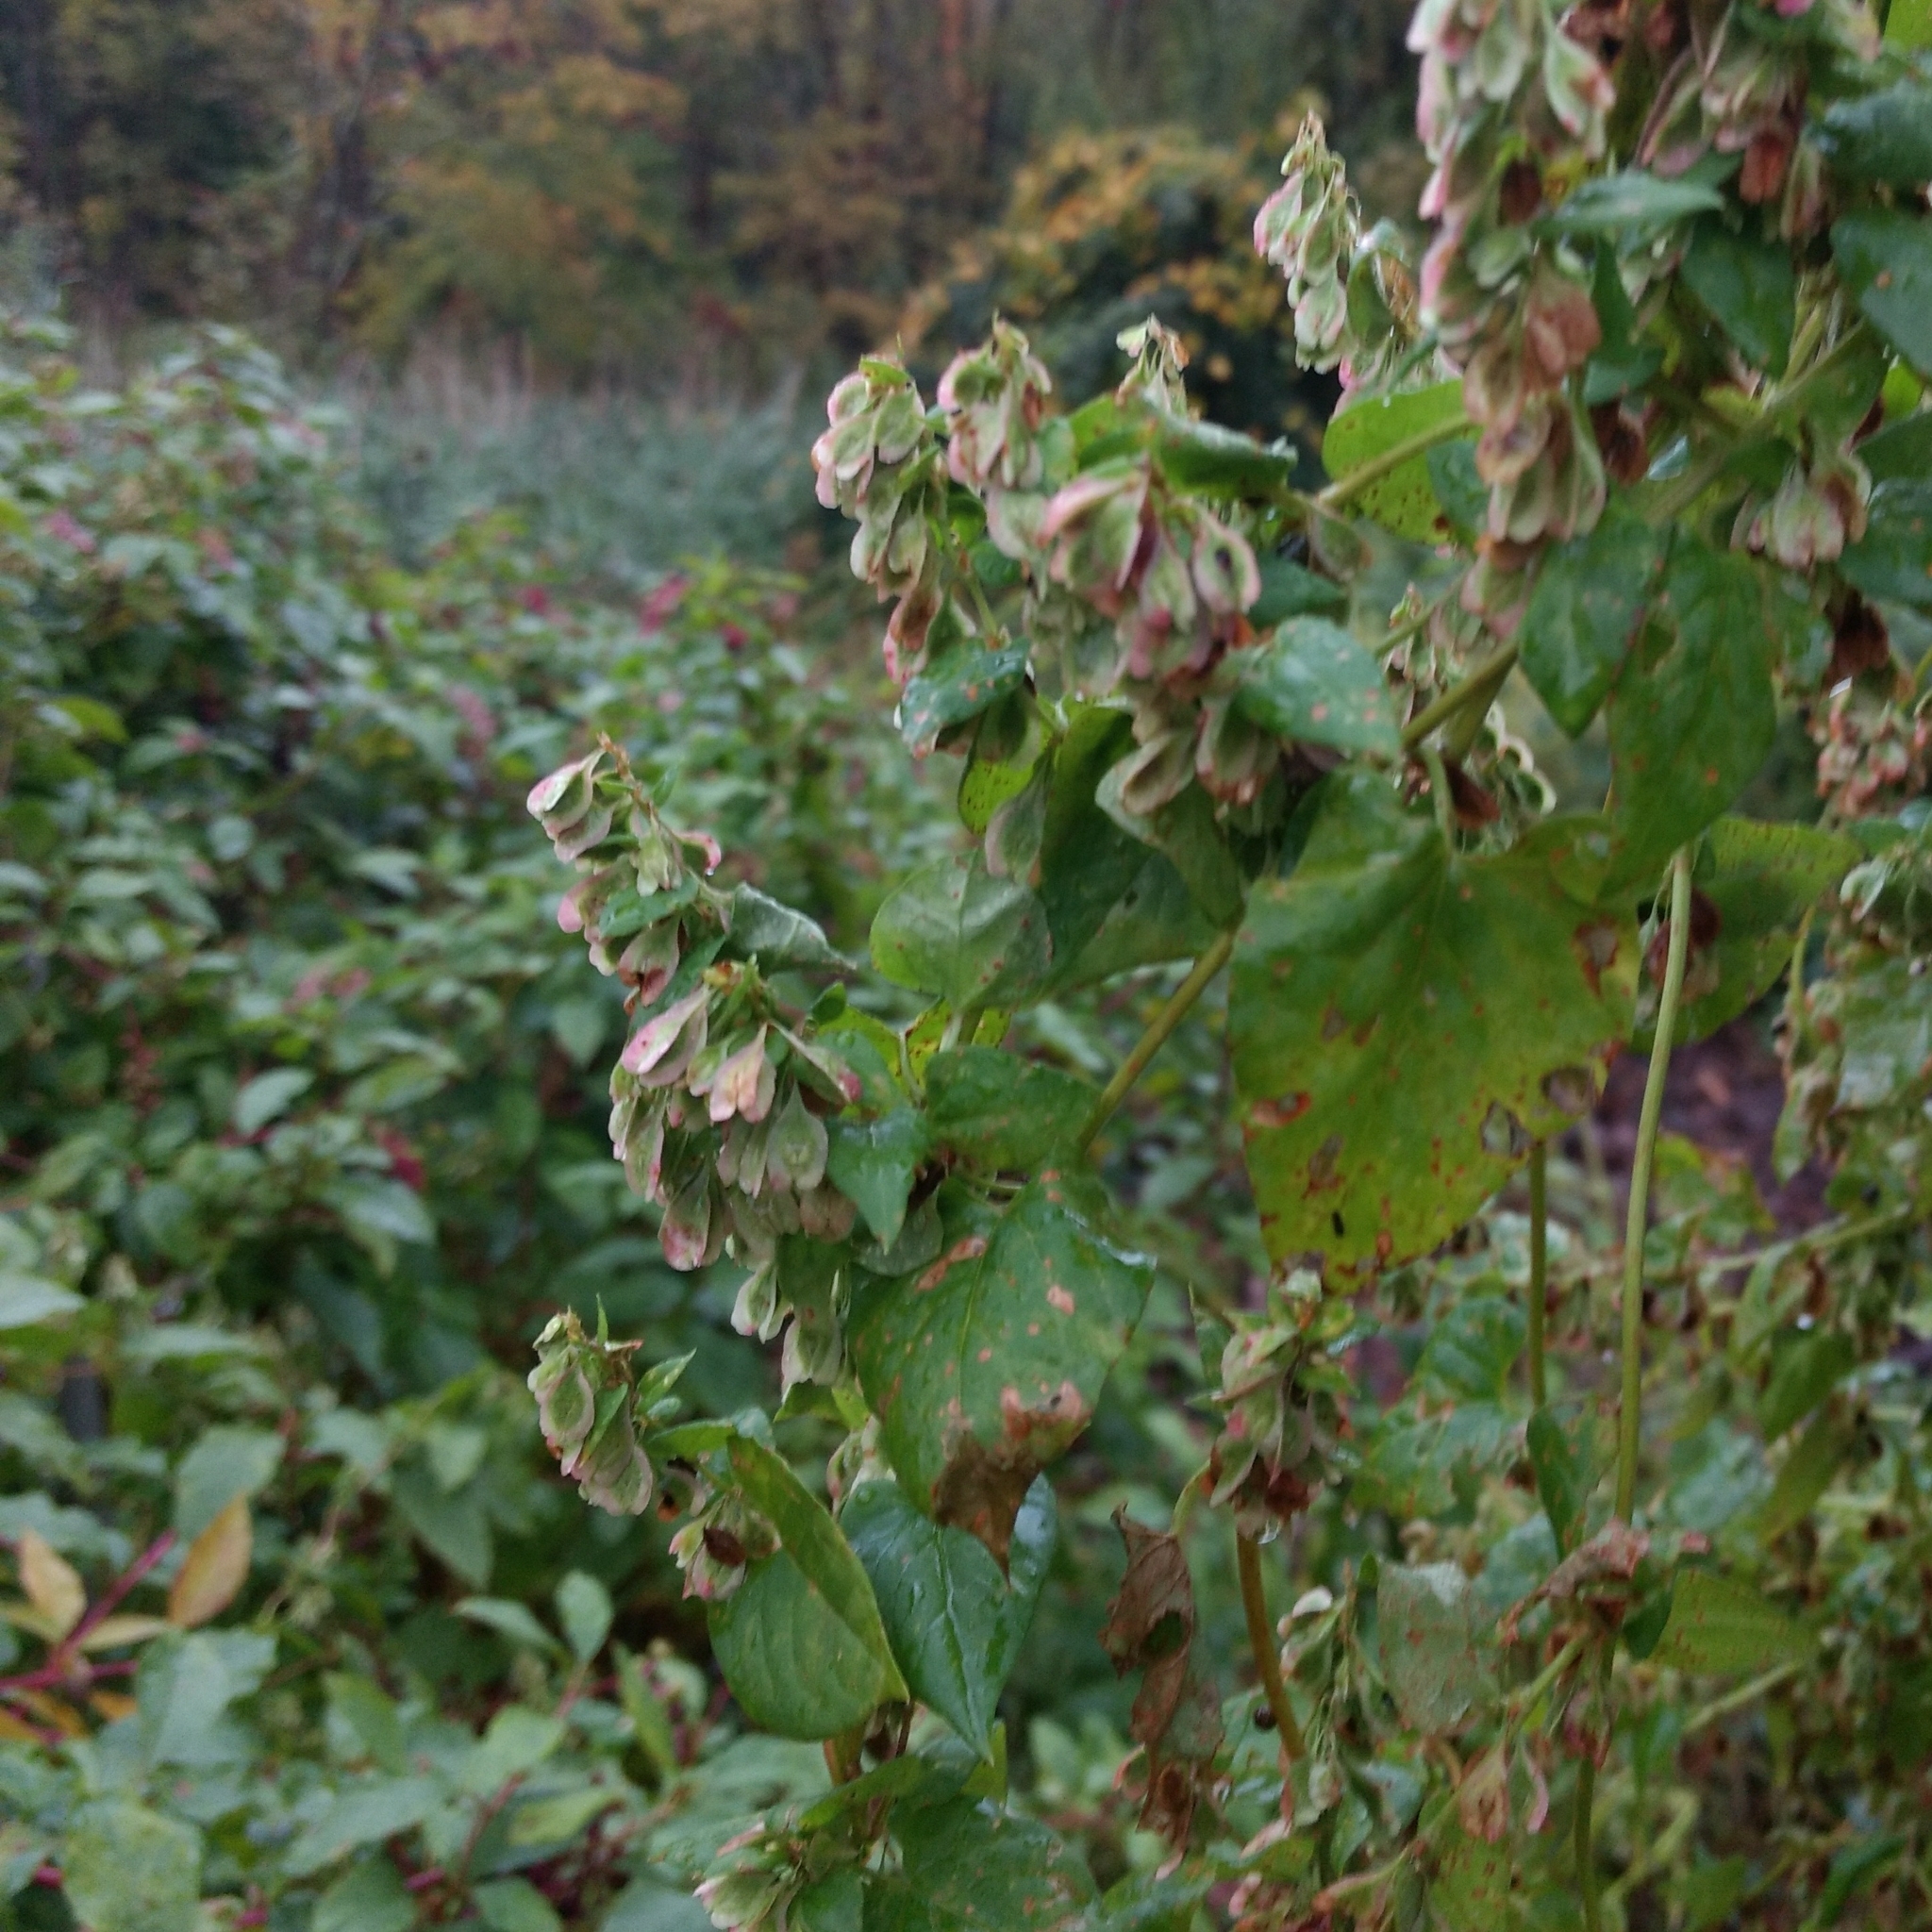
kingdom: Plantae
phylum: Tracheophyta
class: Magnoliopsida
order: Caryophyllales
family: Polygonaceae
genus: Fallopia
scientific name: Fallopia scandens
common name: Climbing false buckwheat
